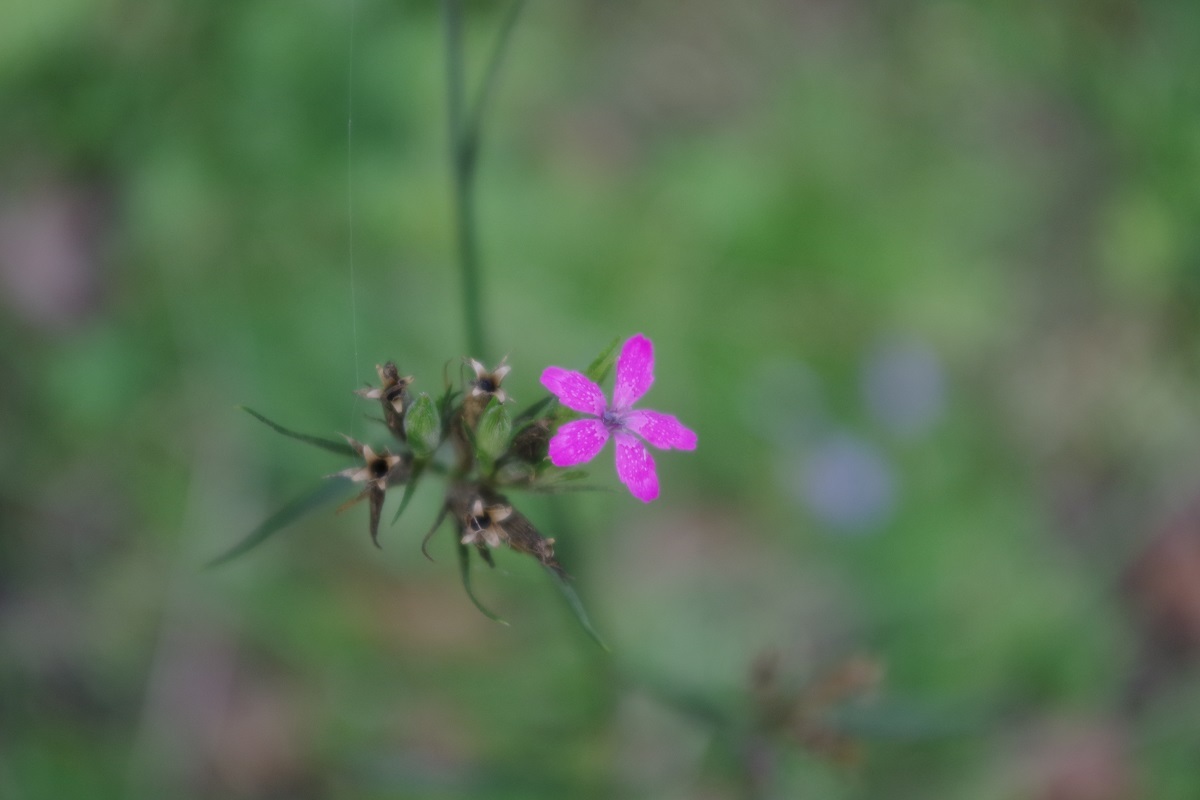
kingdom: Plantae
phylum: Tracheophyta
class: Magnoliopsida
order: Caryophyllales
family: Caryophyllaceae
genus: Dianthus
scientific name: Dianthus armeria
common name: Deptford pink
